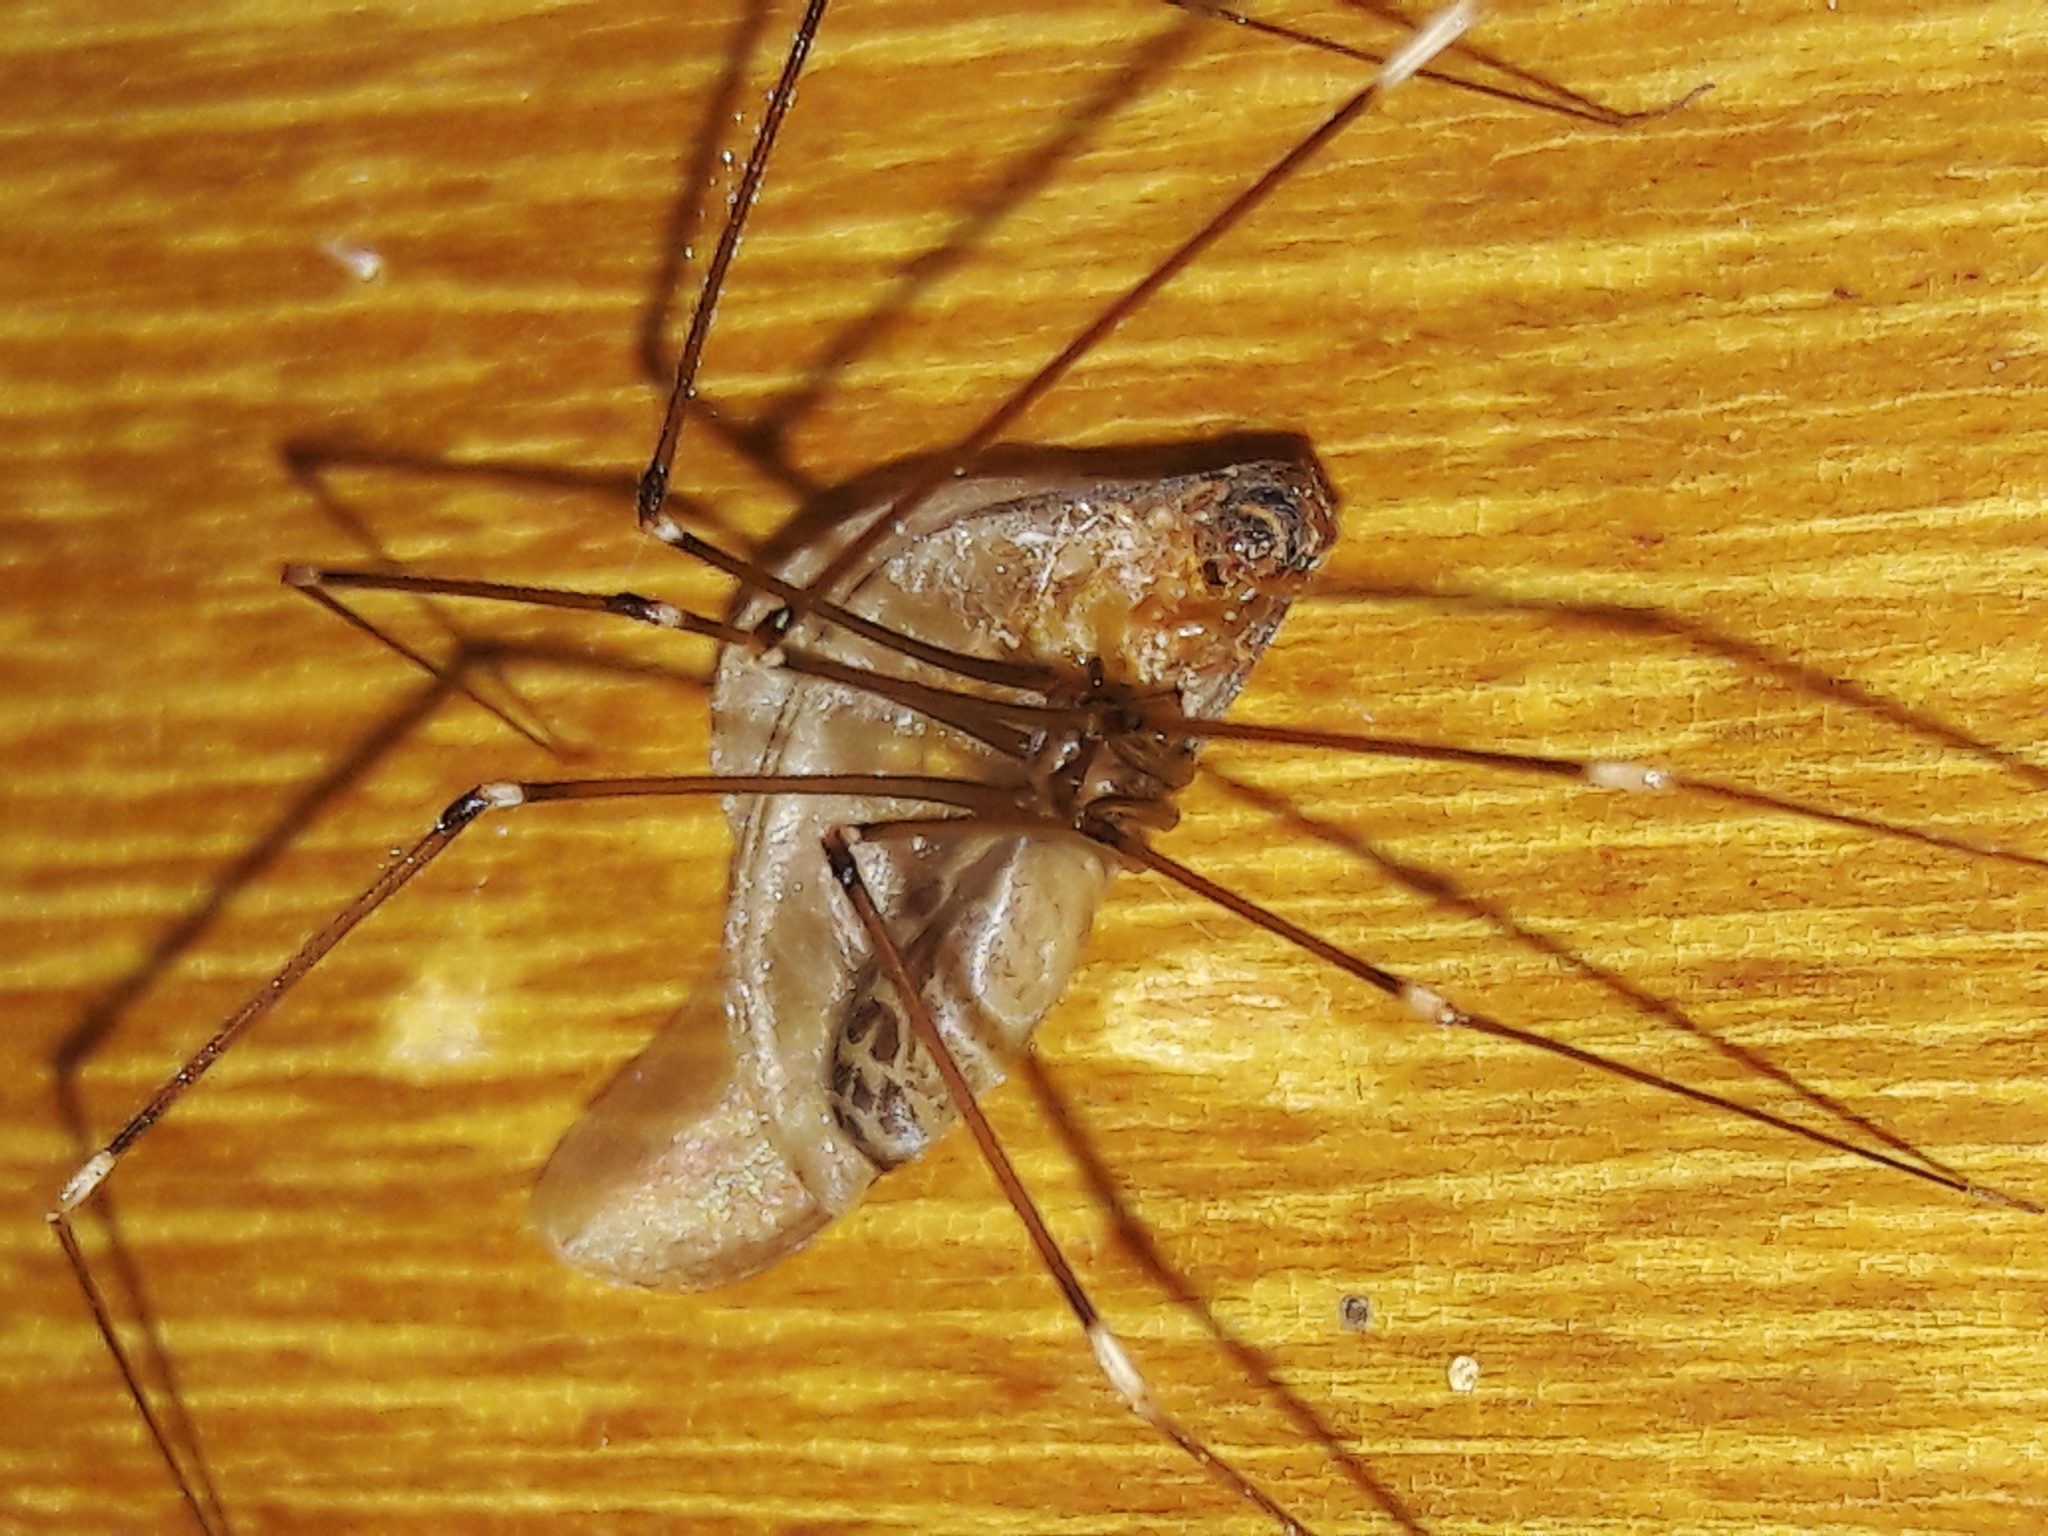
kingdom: Animalia
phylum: Arthropoda
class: Arachnida
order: Araneae
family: Pholcidae
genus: Smeringopus
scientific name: Smeringopus pallidus
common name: Cellar spider
